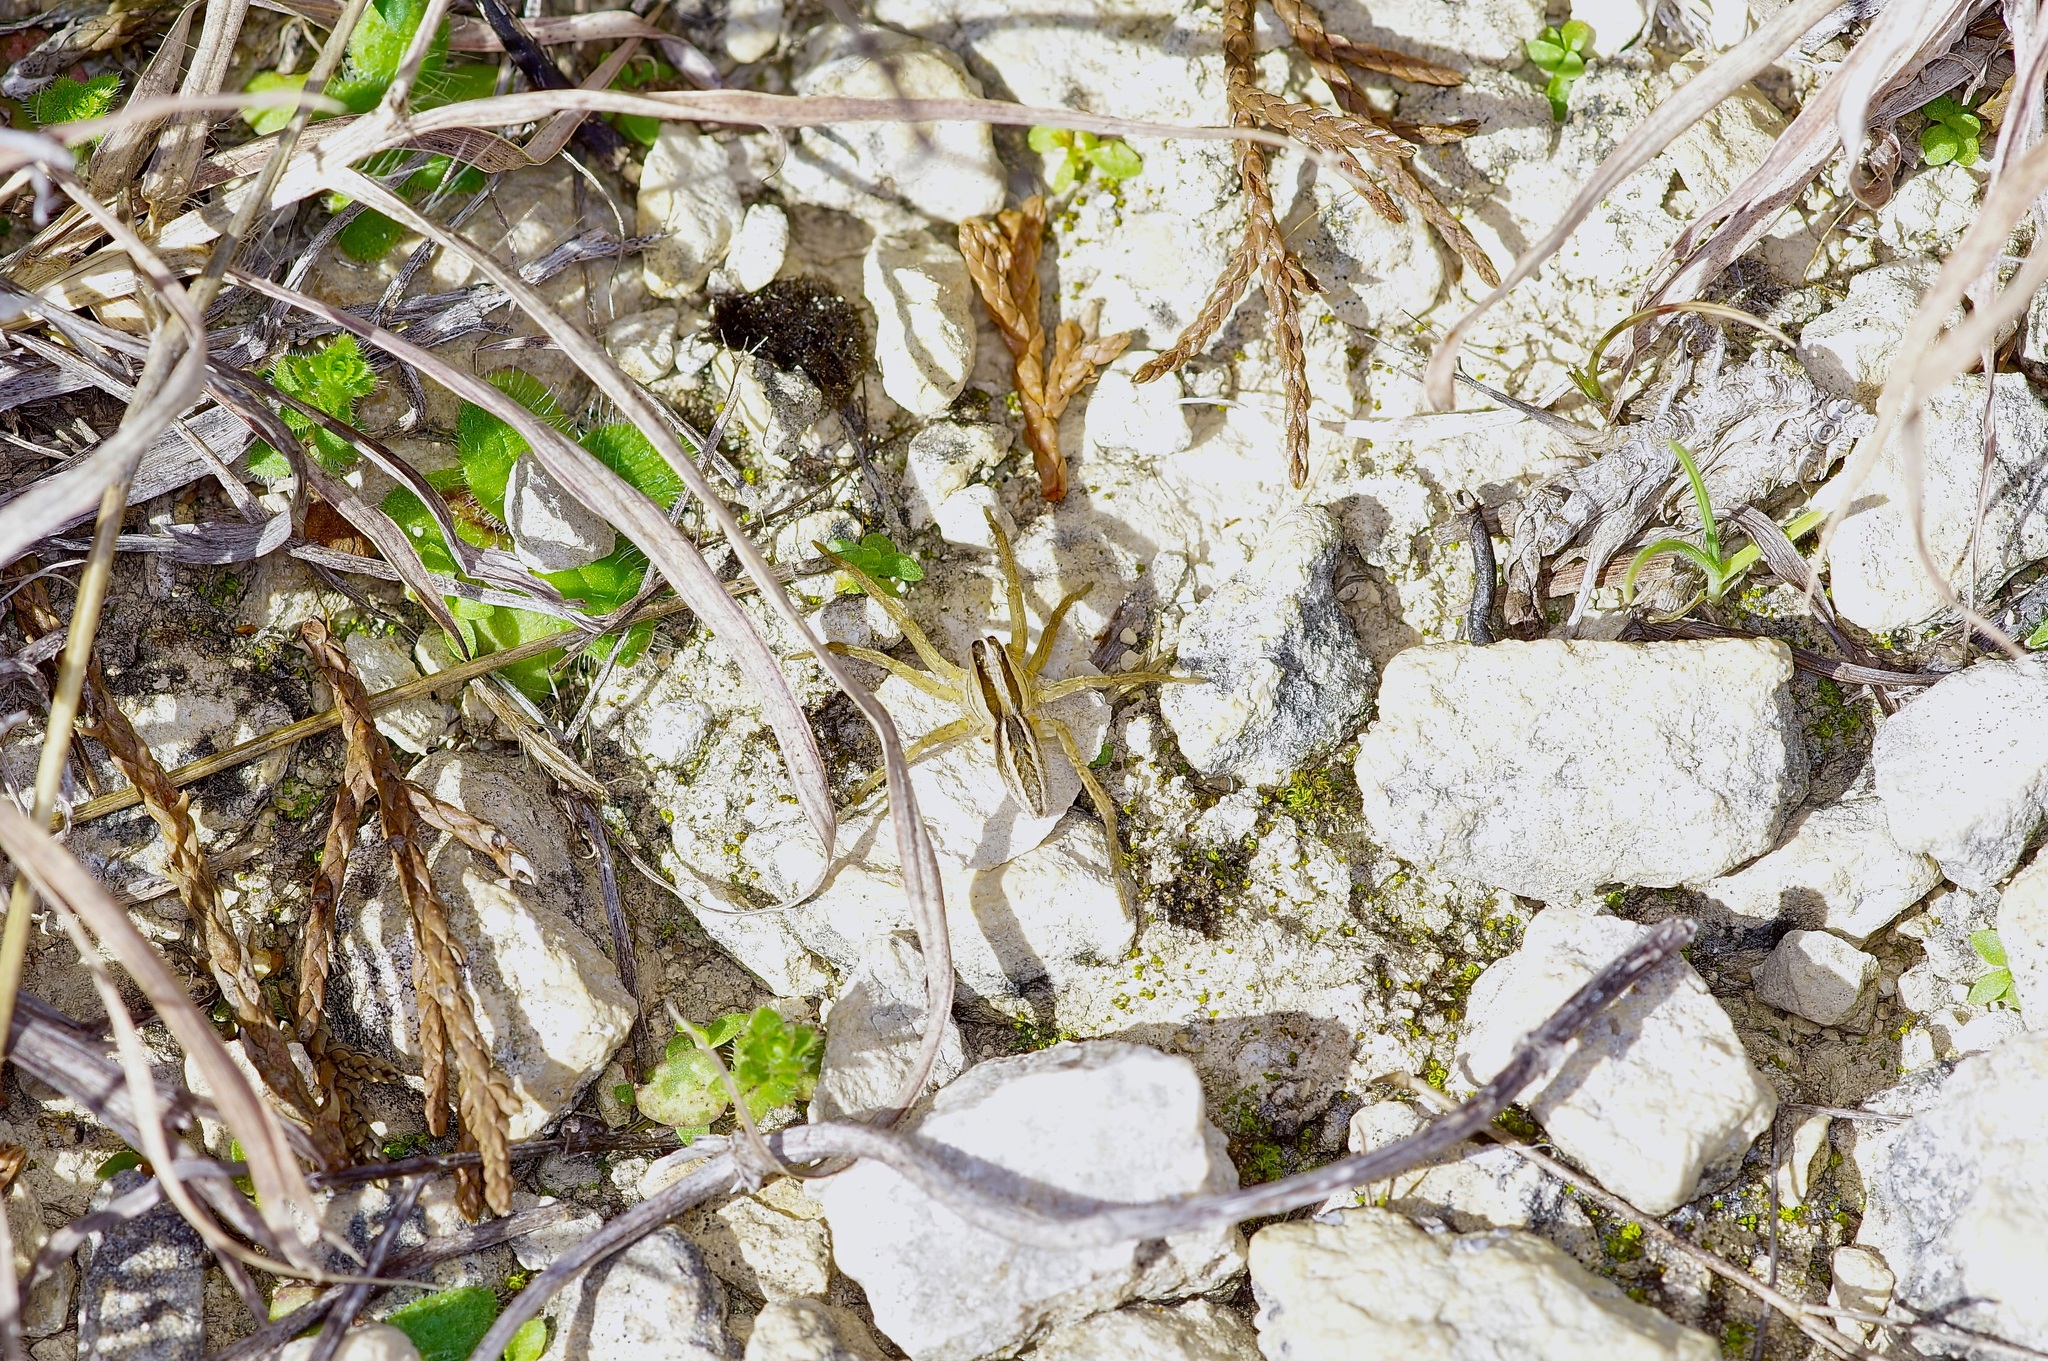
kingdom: Animalia
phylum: Arthropoda
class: Arachnida
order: Araneae
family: Lycosidae
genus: Rabidosa
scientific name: Rabidosa rabida
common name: Rabid wolf spider
